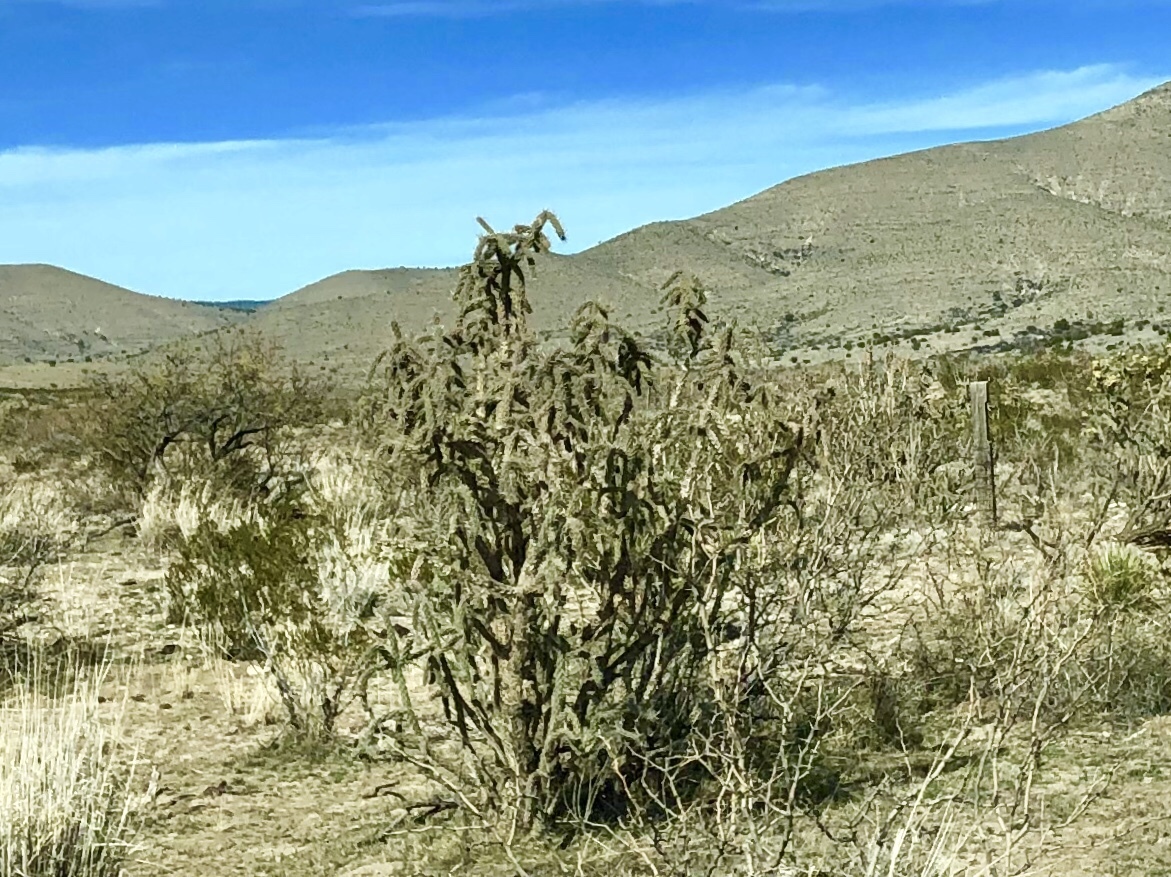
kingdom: Plantae
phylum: Tracheophyta
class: Magnoliopsida
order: Caryophyllales
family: Cactaceae
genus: Cylindropuntia
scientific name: Cylindropuntia imbricata
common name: Candelabrum cactus
